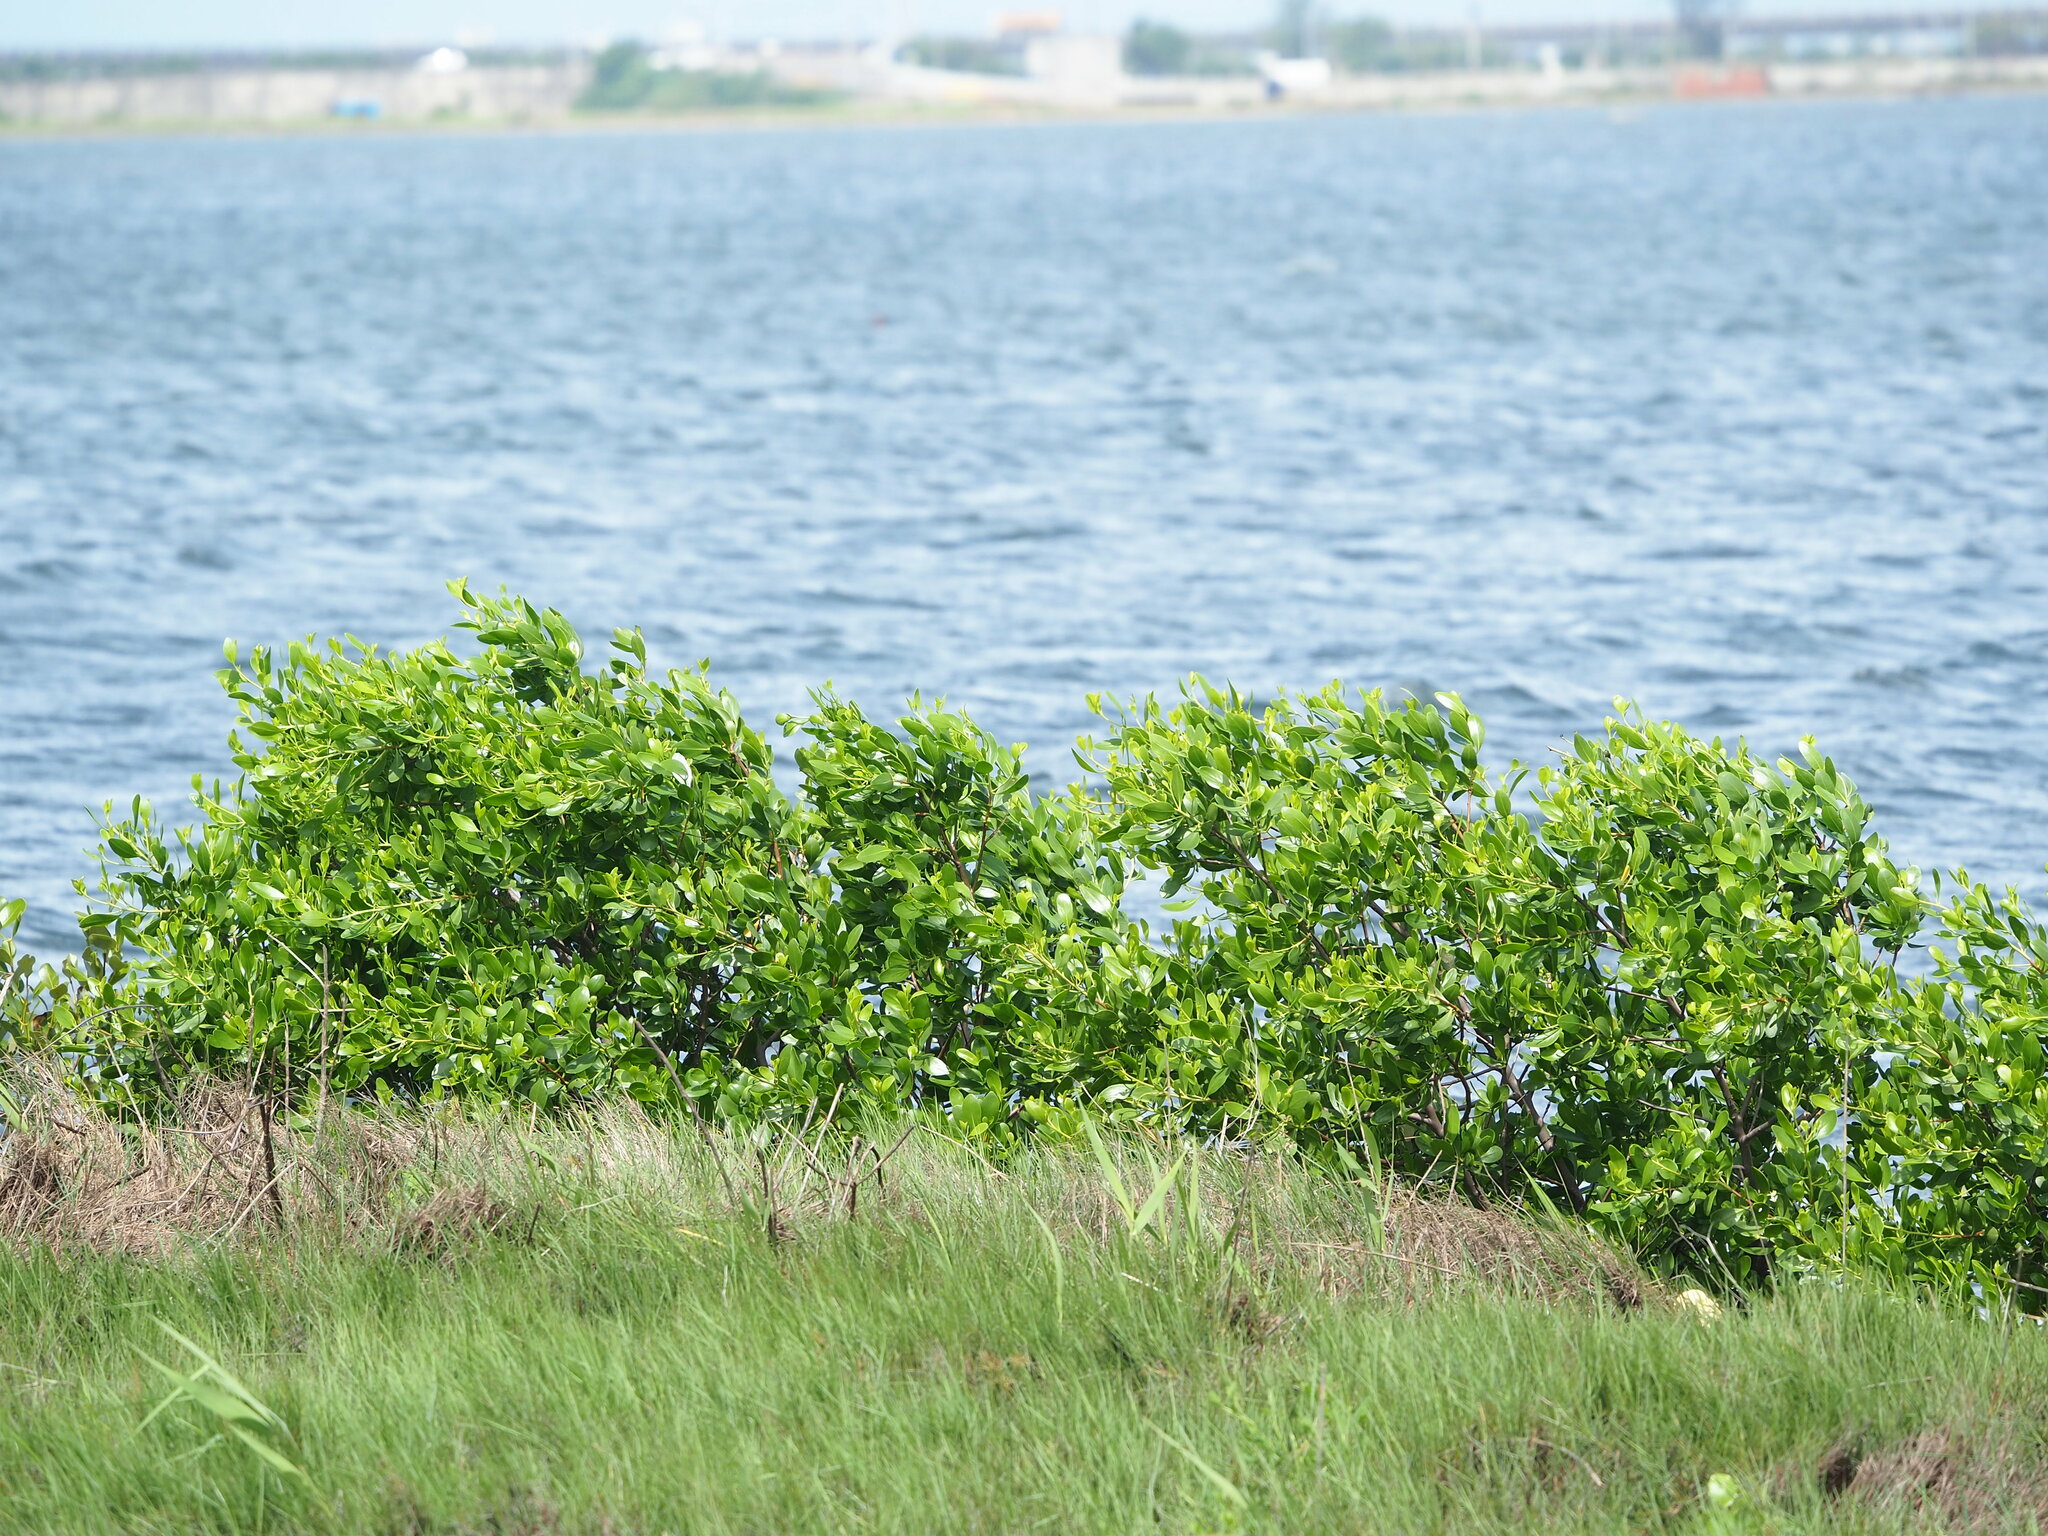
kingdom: Plantae
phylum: Tracheophyta
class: Magnoliopsida
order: Myrtales
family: Combretaceae
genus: Lumnitzera
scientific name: Lumnitzera racemosa
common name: White-flowered black mangrove
